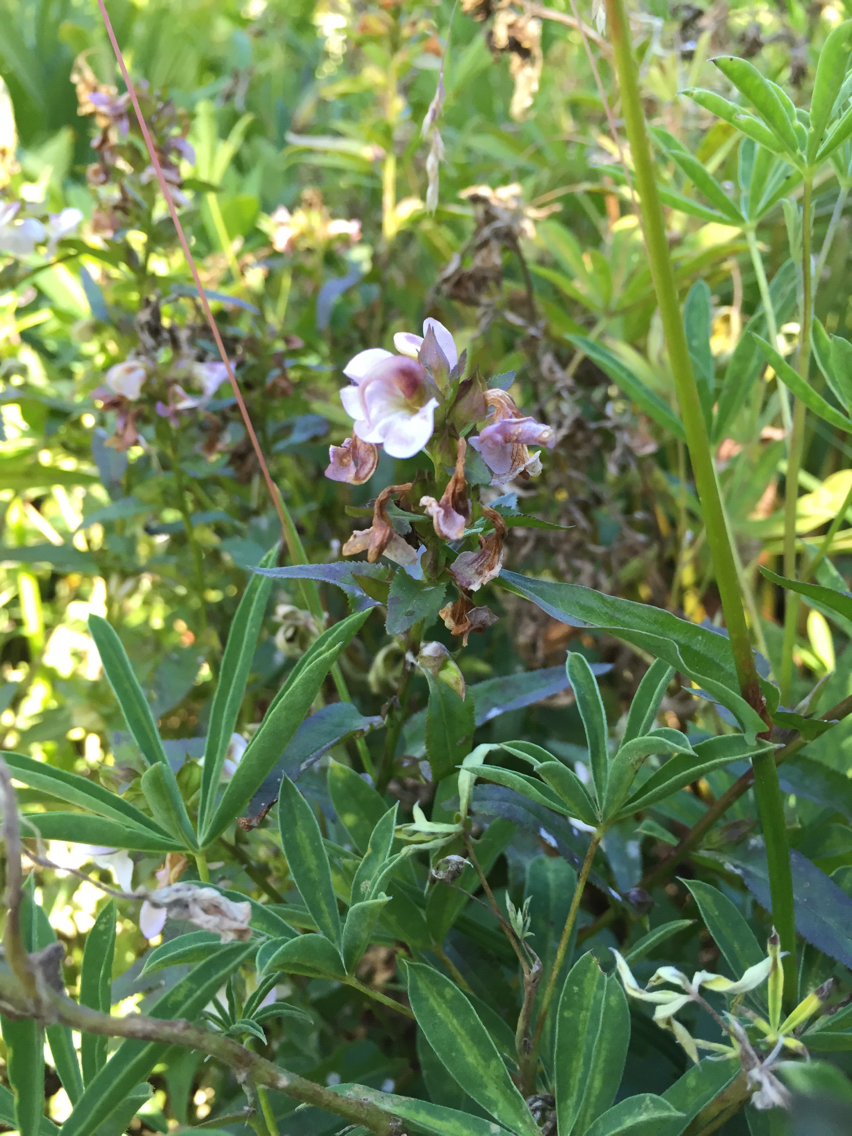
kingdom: Plantae
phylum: Tracheophyta
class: Magnoliopsida
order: Lamiales
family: Orobanchaceae
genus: Pedicularis
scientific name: Pedicularis racemosa
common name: Leafy lousewort
